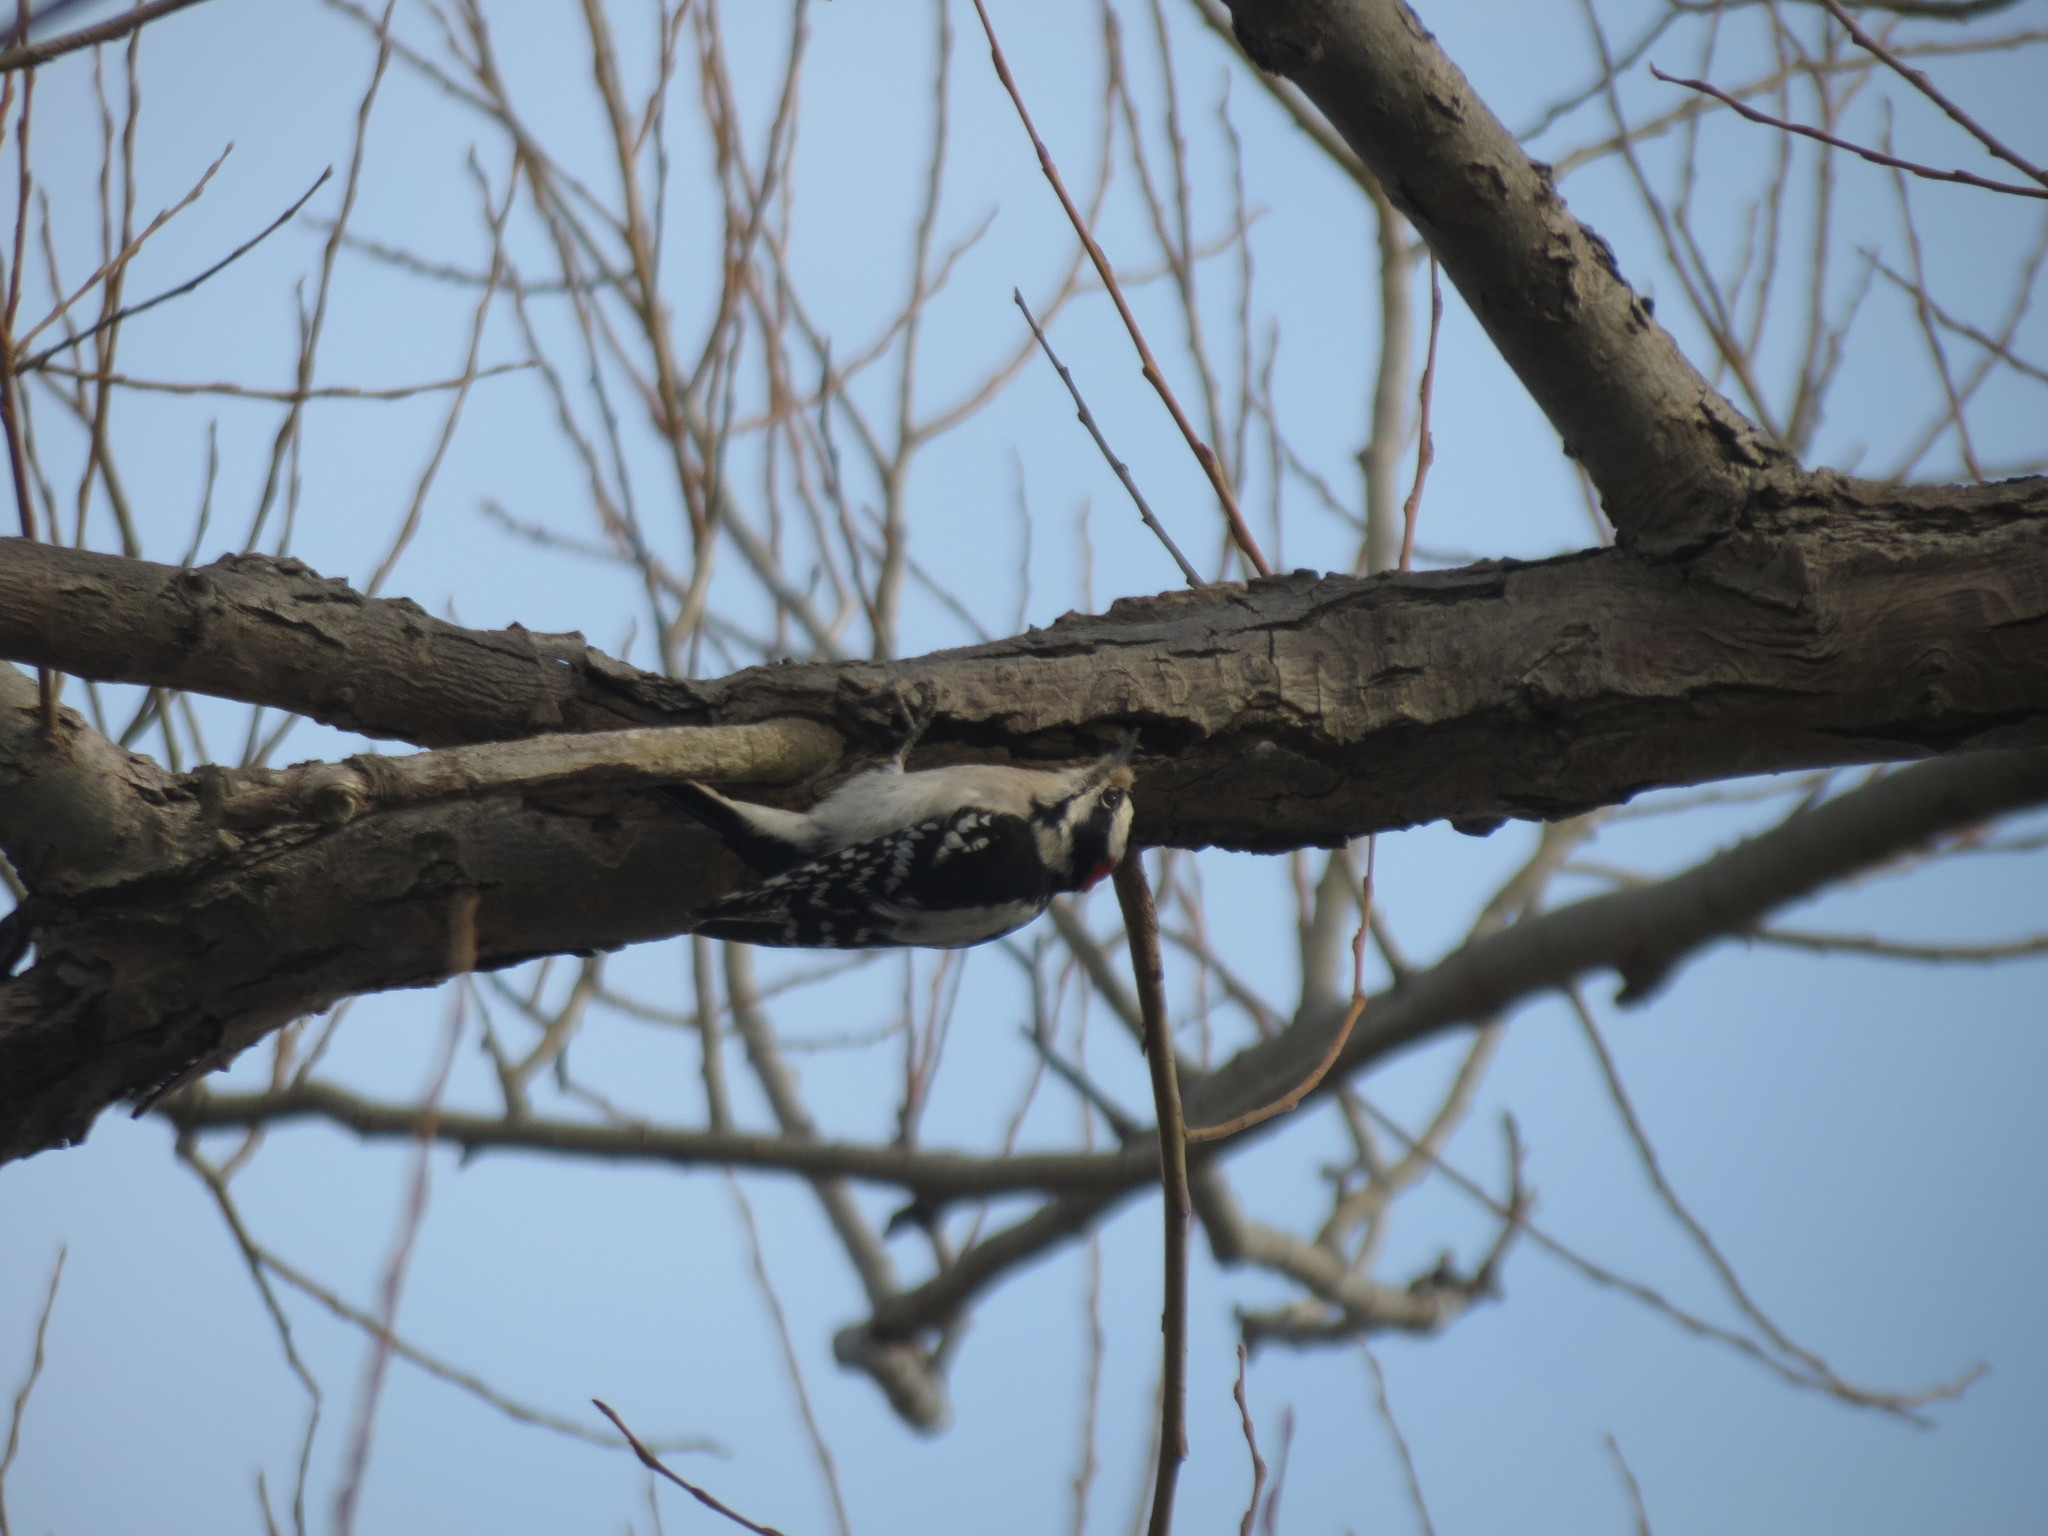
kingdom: Animalia
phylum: Chordata
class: Aves
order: Piciformes
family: Picidae
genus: Dryobates
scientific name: Dryobates pubescens
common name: Downy woodpecker
